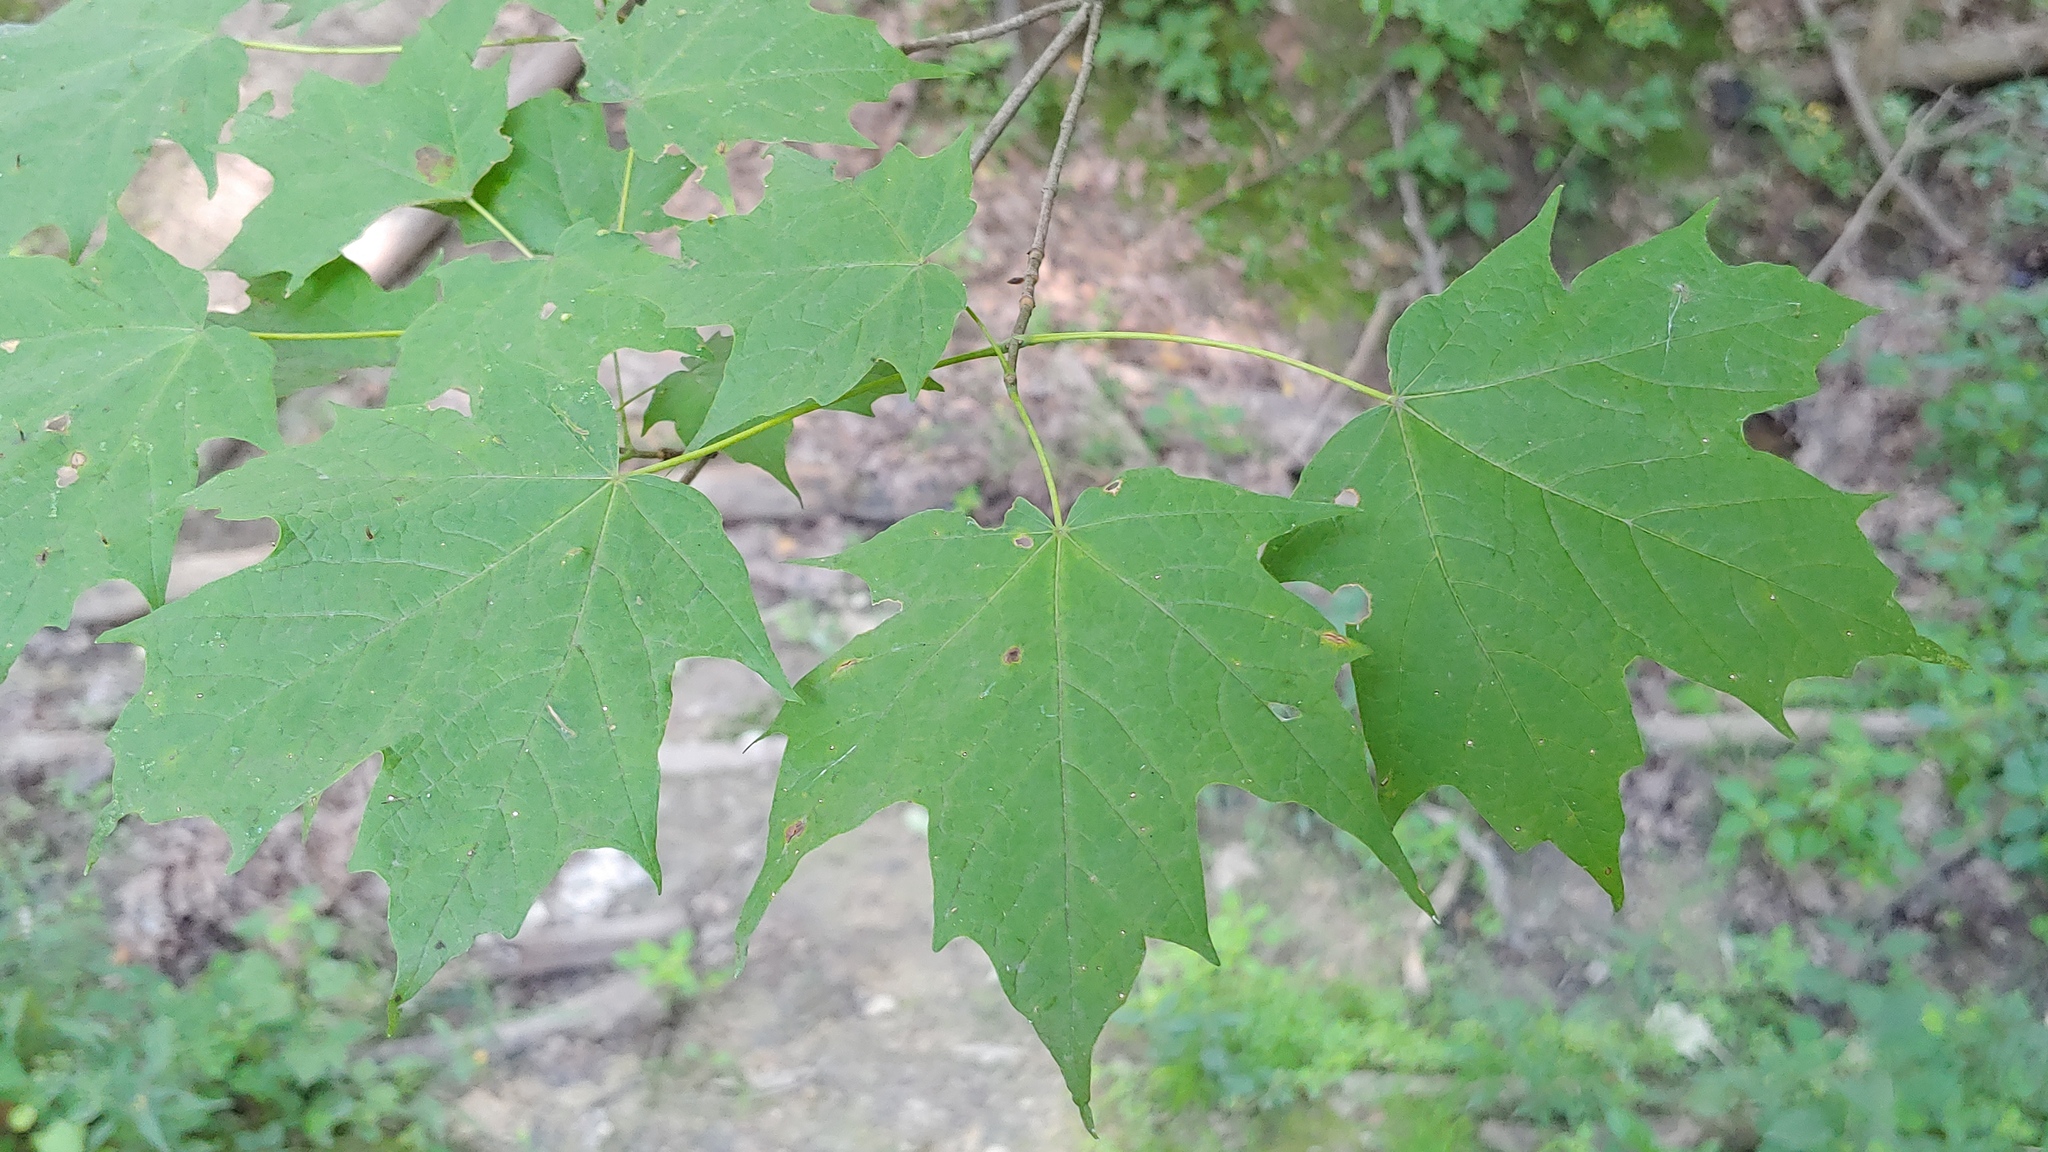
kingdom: Plantae
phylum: Tracheophyta
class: Magnoliopsida
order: Sapindales
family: Sapindaceae
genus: Acer
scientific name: Acer saccharum
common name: Sugar maple
